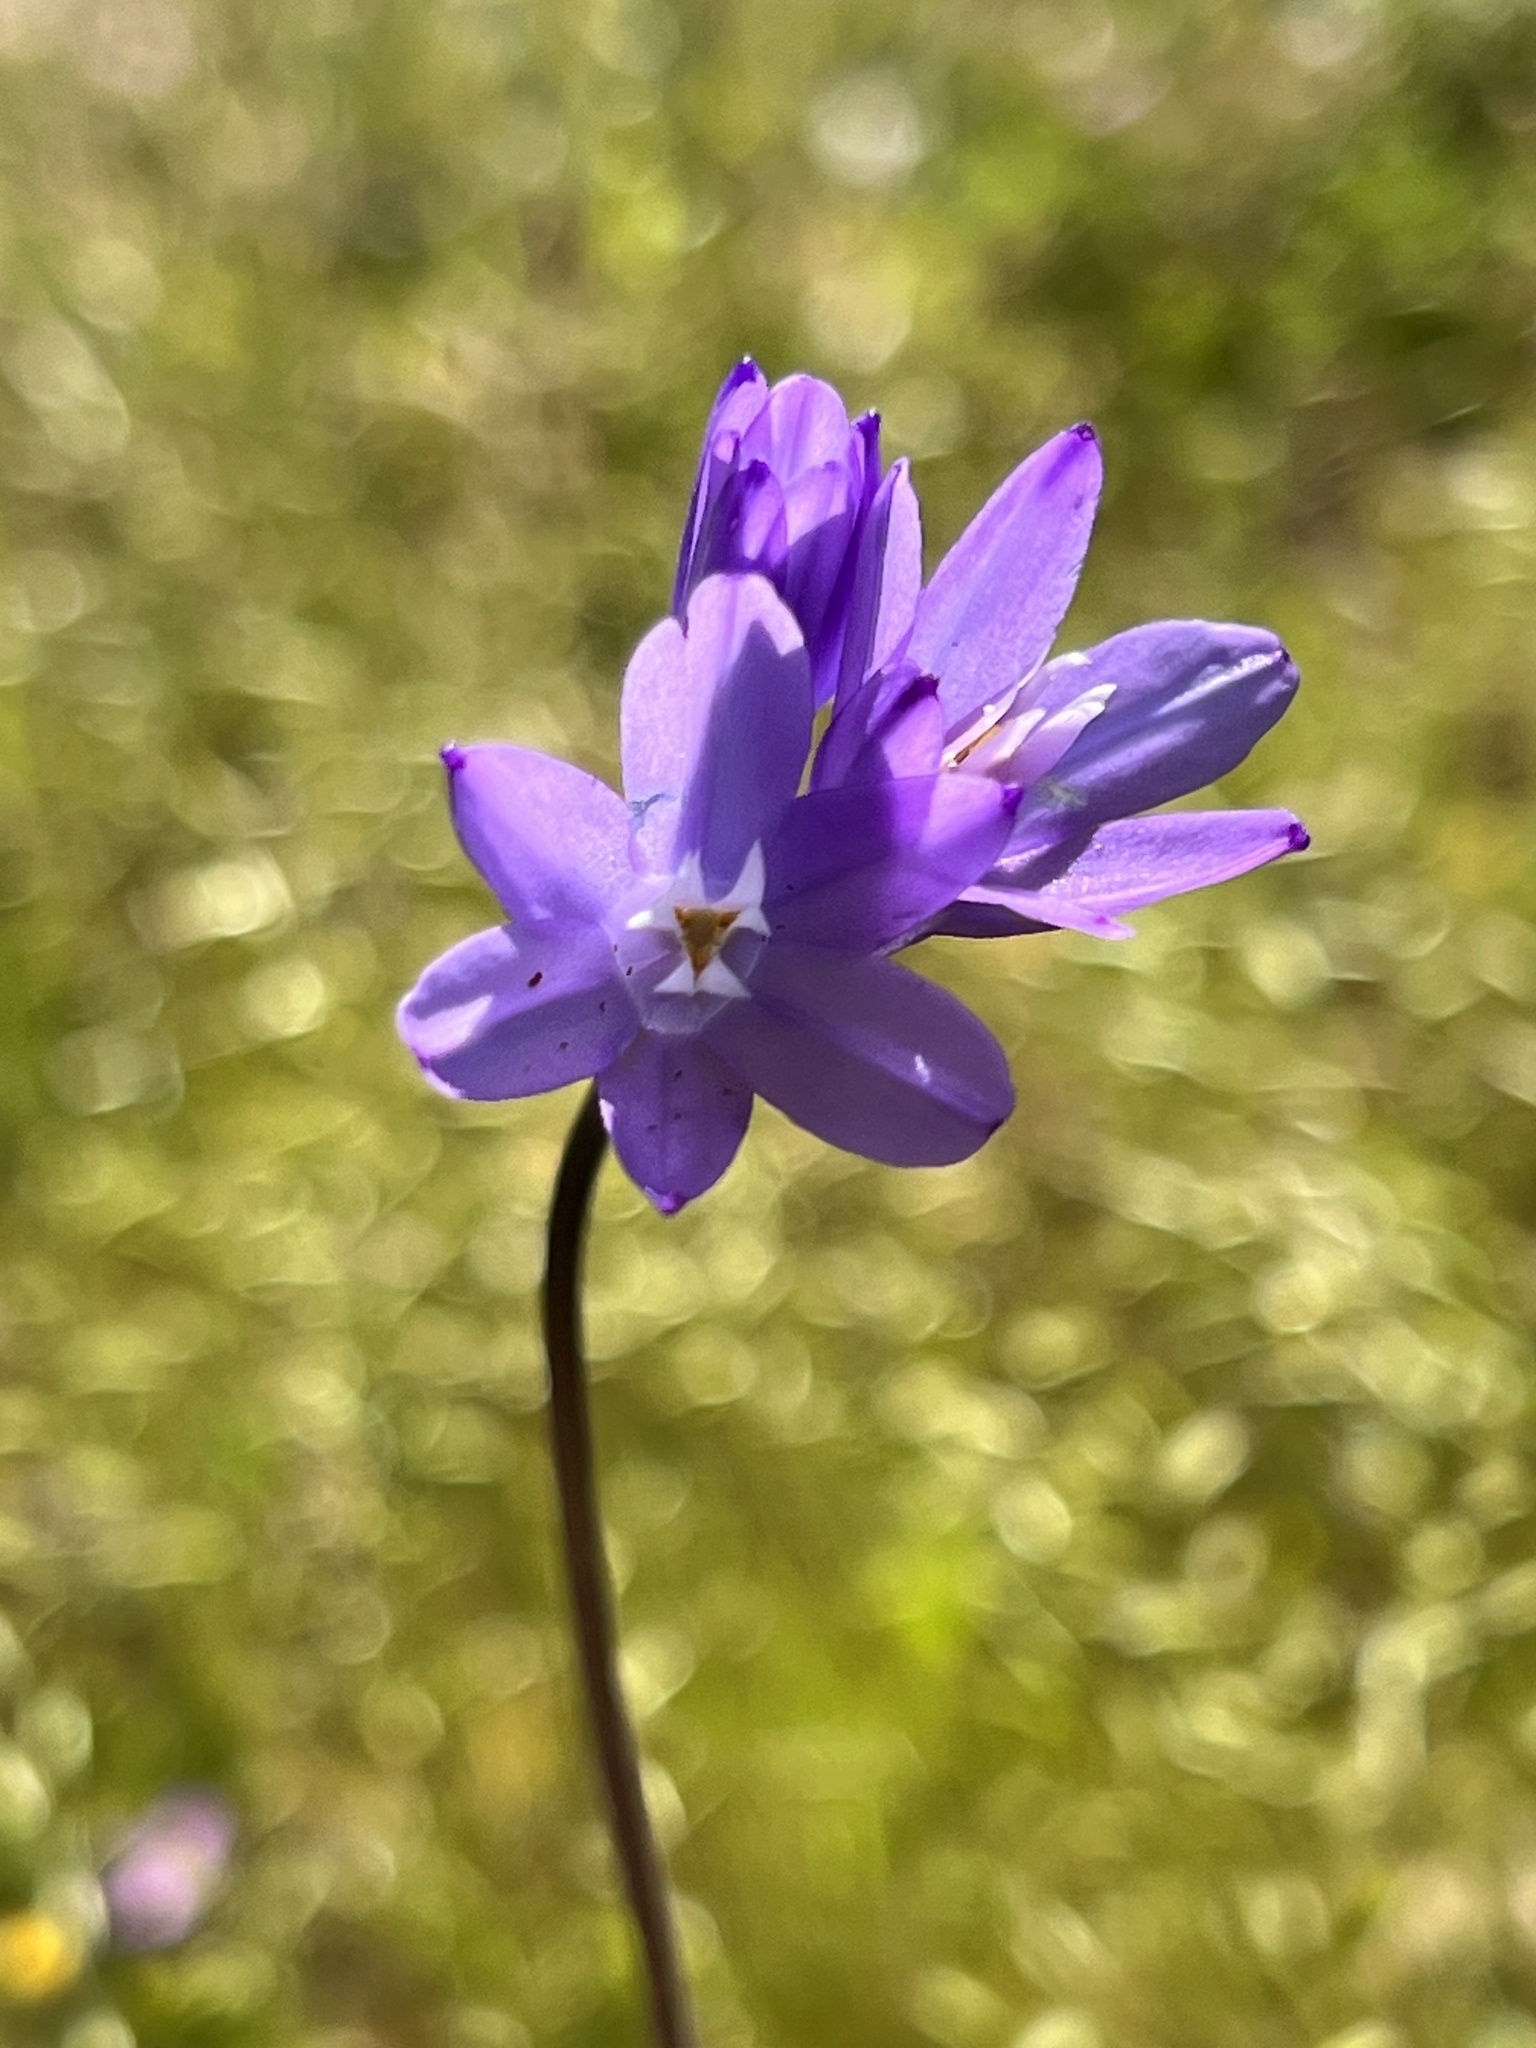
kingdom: Plantae
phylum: Tracheophyta
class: Liliopsida
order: Asparagales
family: Asparagaceae
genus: Dipterostemon
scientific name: Dipterostemon capitatus
